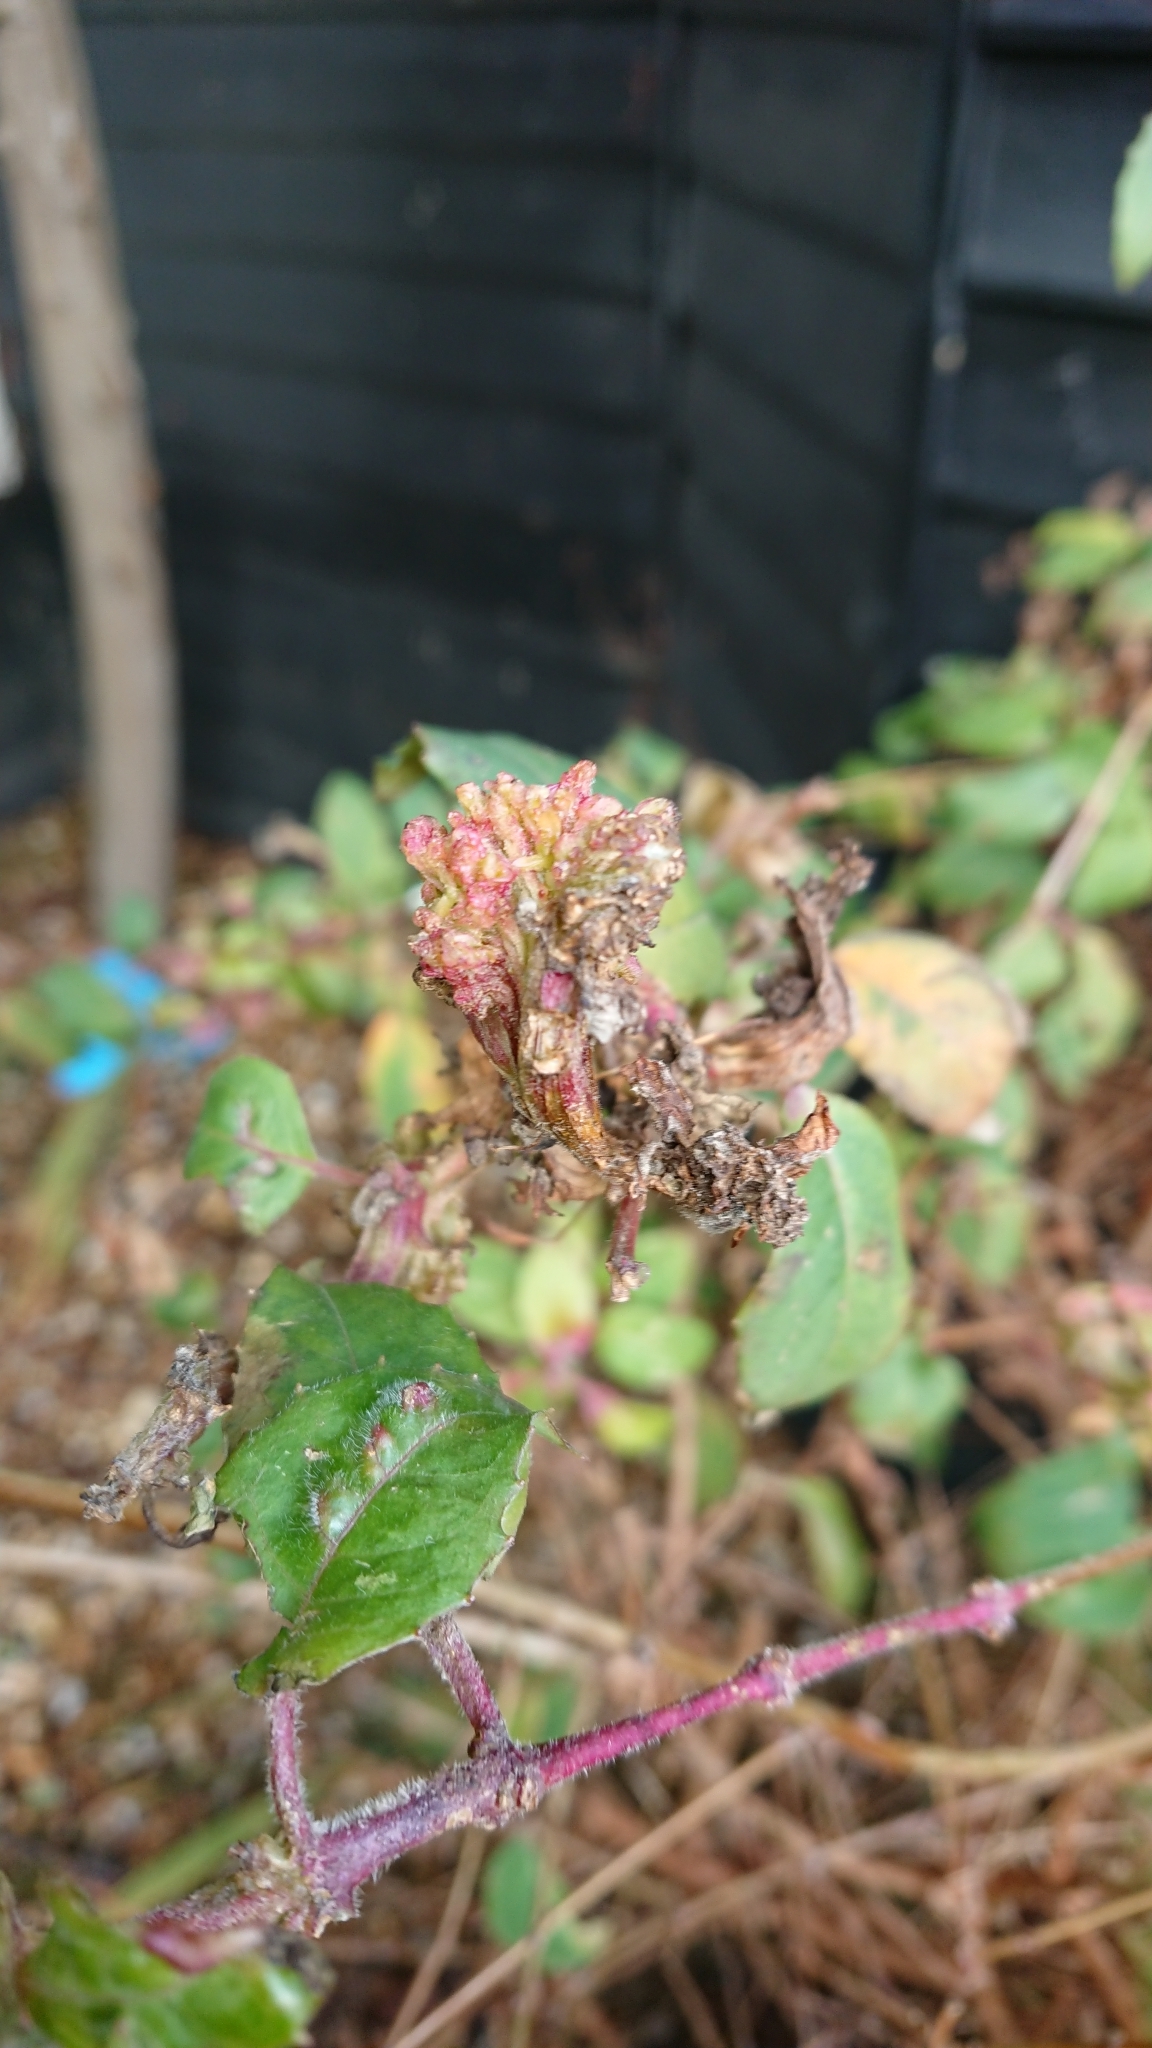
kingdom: Animalia
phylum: Arthropoda
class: Arachnida
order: Trombidiformes
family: Eriophyidae
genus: Aculops
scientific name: Aculops fuchsiae
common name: Fuchsia gall mite
